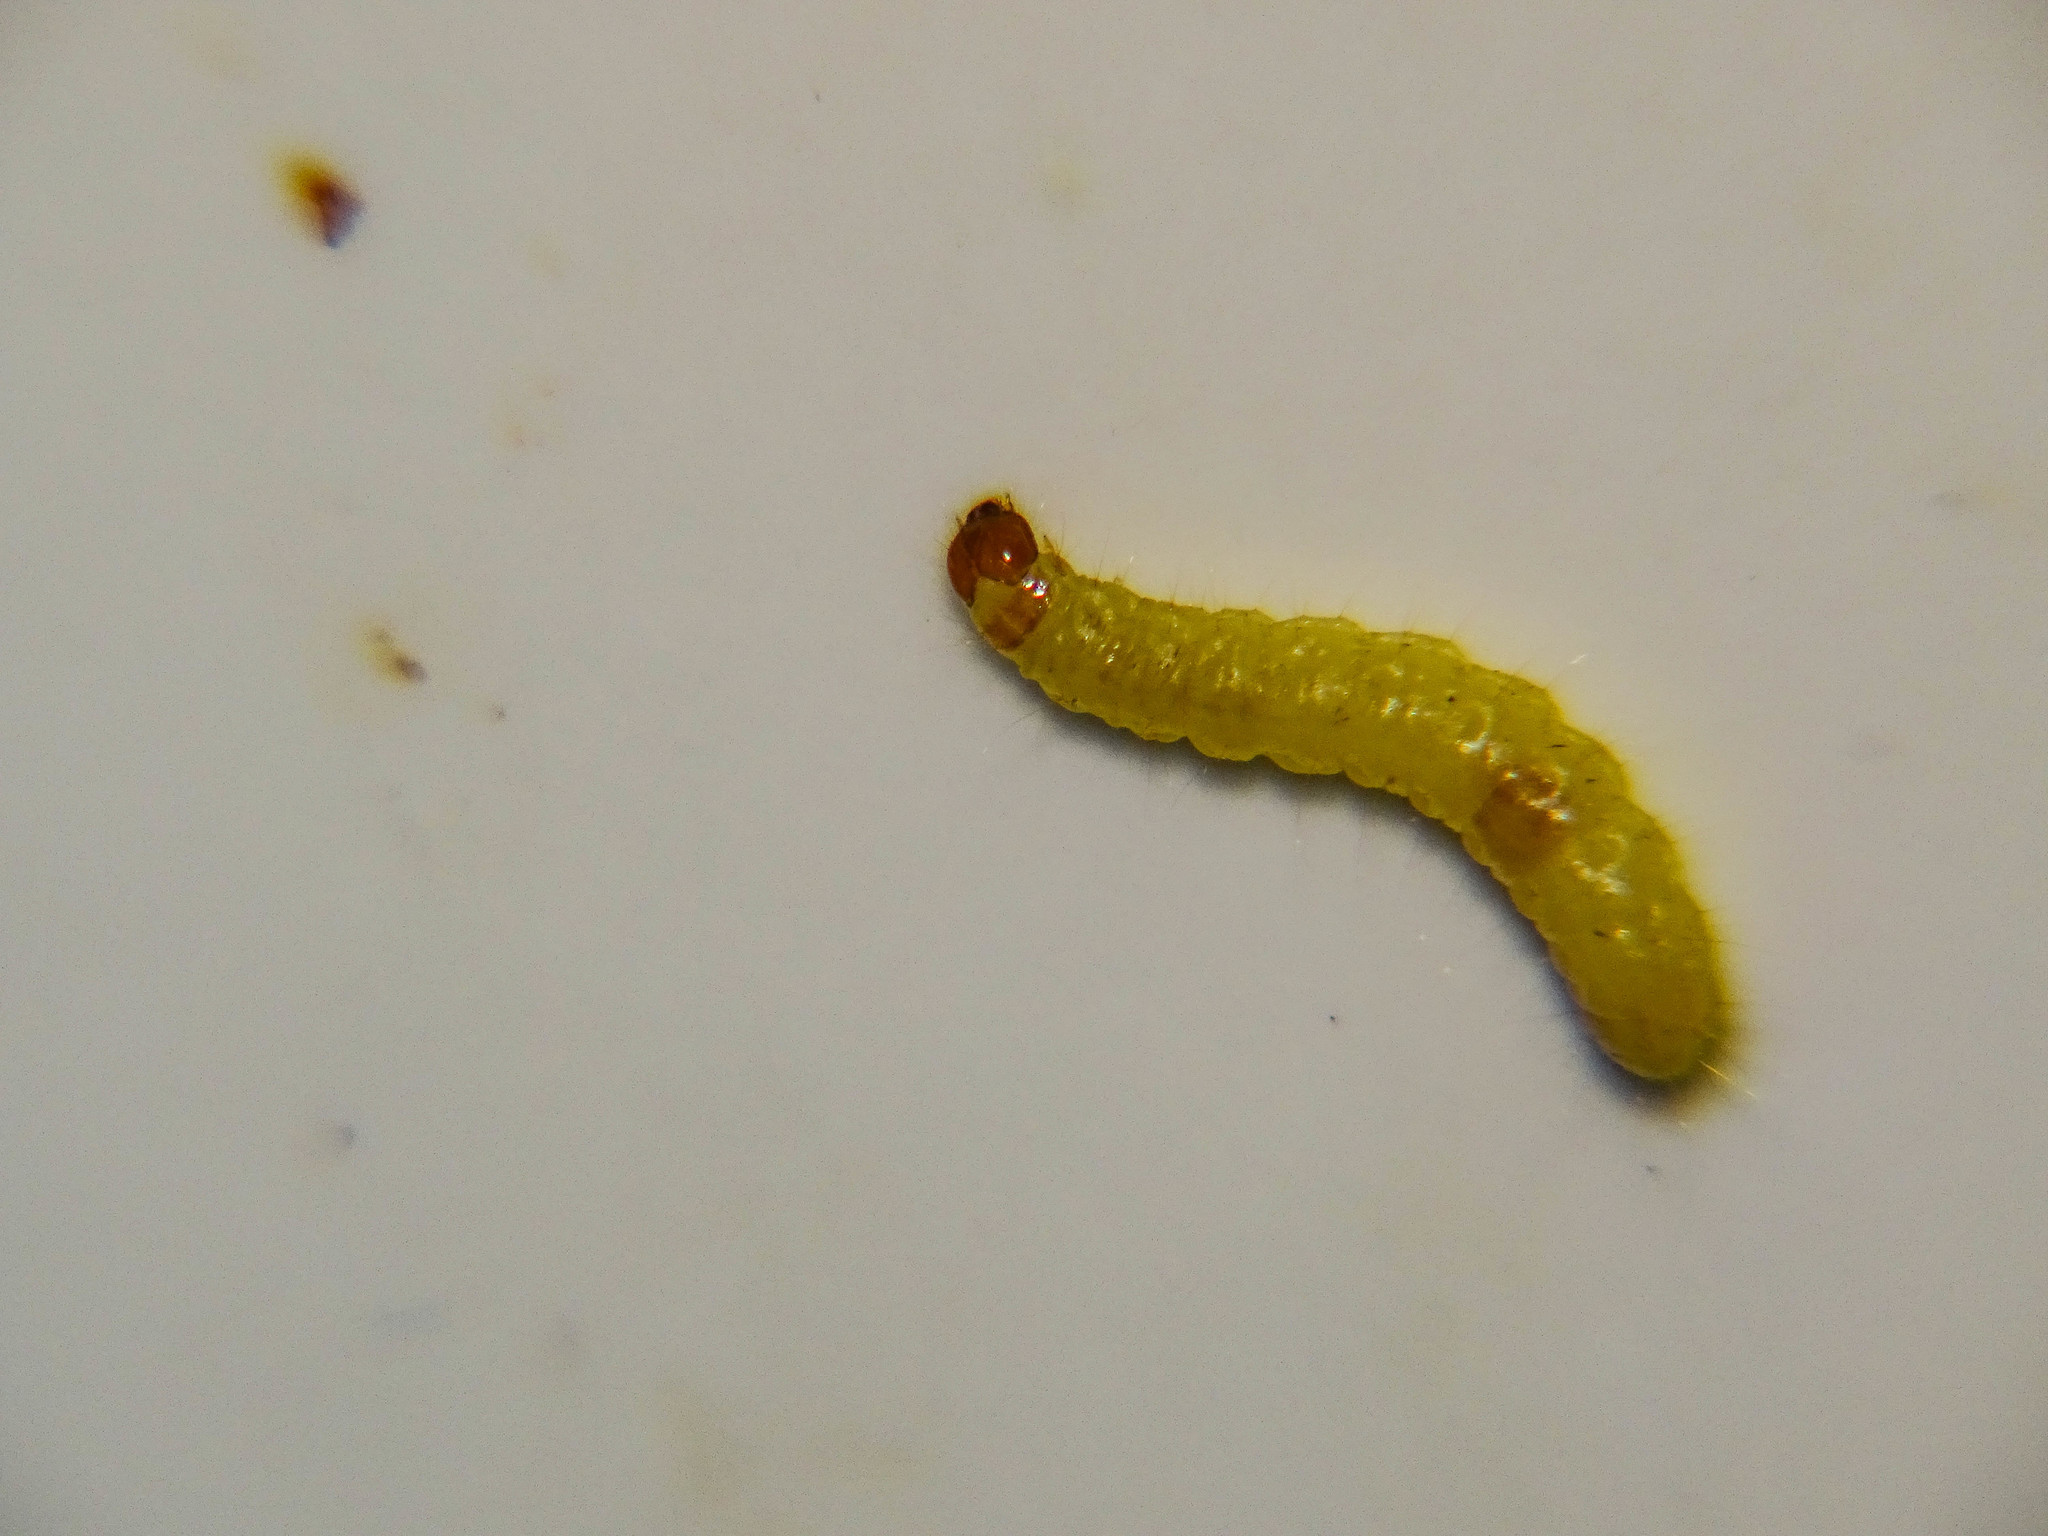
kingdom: Animalia
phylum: Arthropoda
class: Insecta
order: Lepidoptera
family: Pyralidae
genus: Plodia
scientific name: Plodia interpunctella
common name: Indian meal moth
